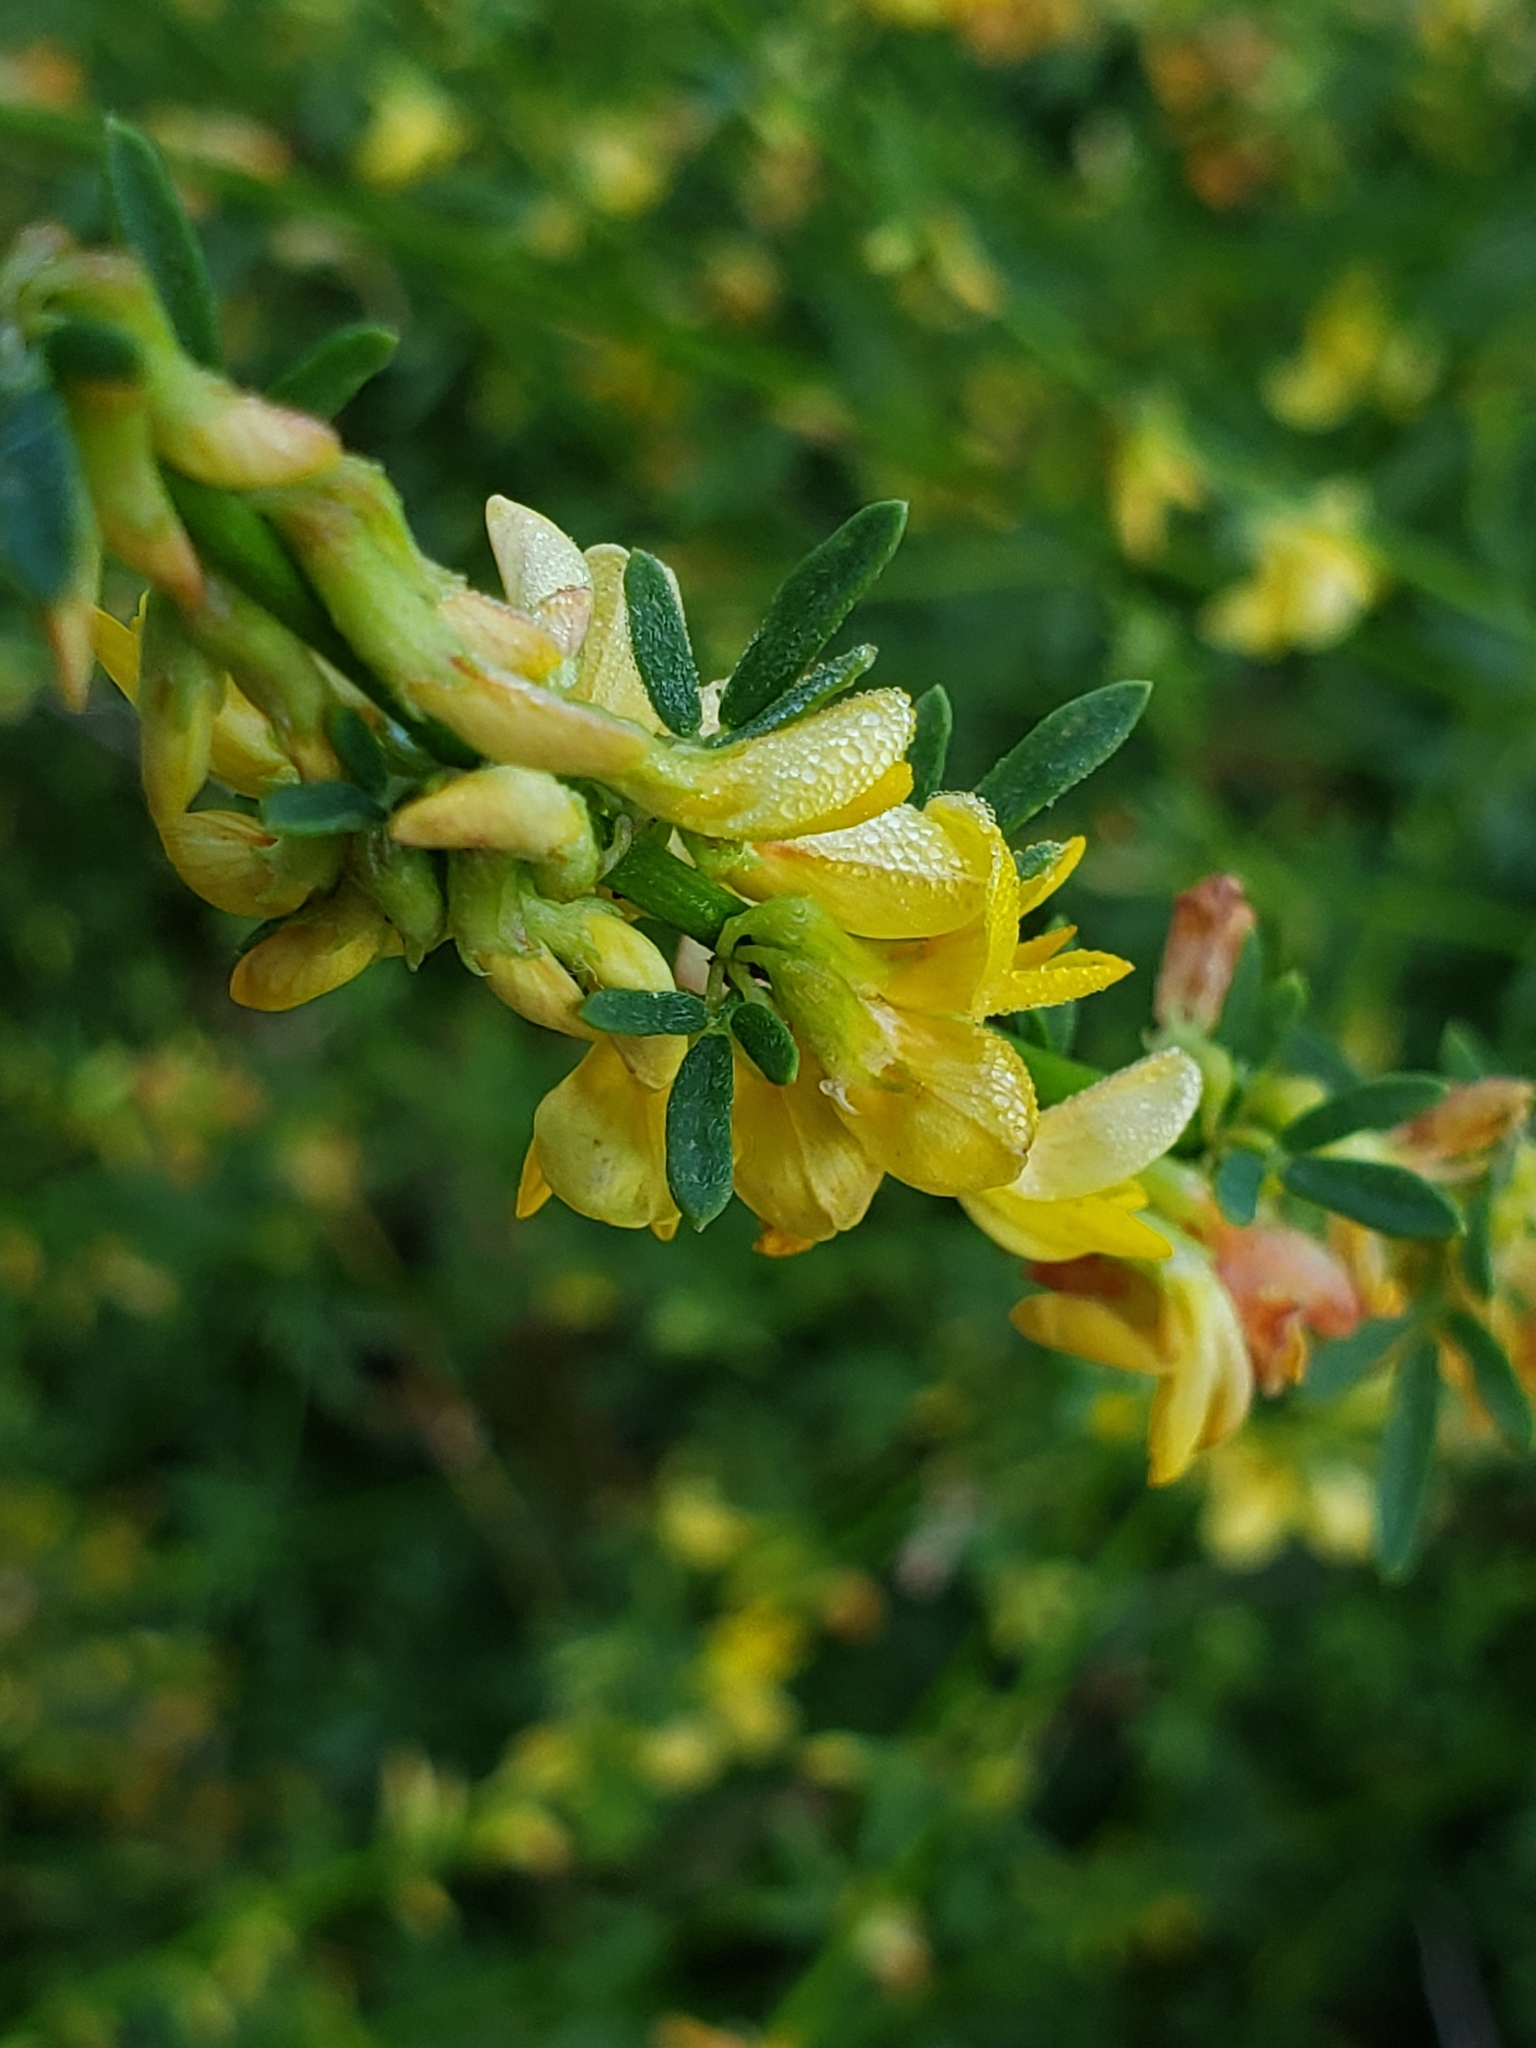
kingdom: Plantae
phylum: Tracheophyta
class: Magnoliopsida
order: Fabales
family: Fabaceae
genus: Acmispon
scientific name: Acmispon glaber
